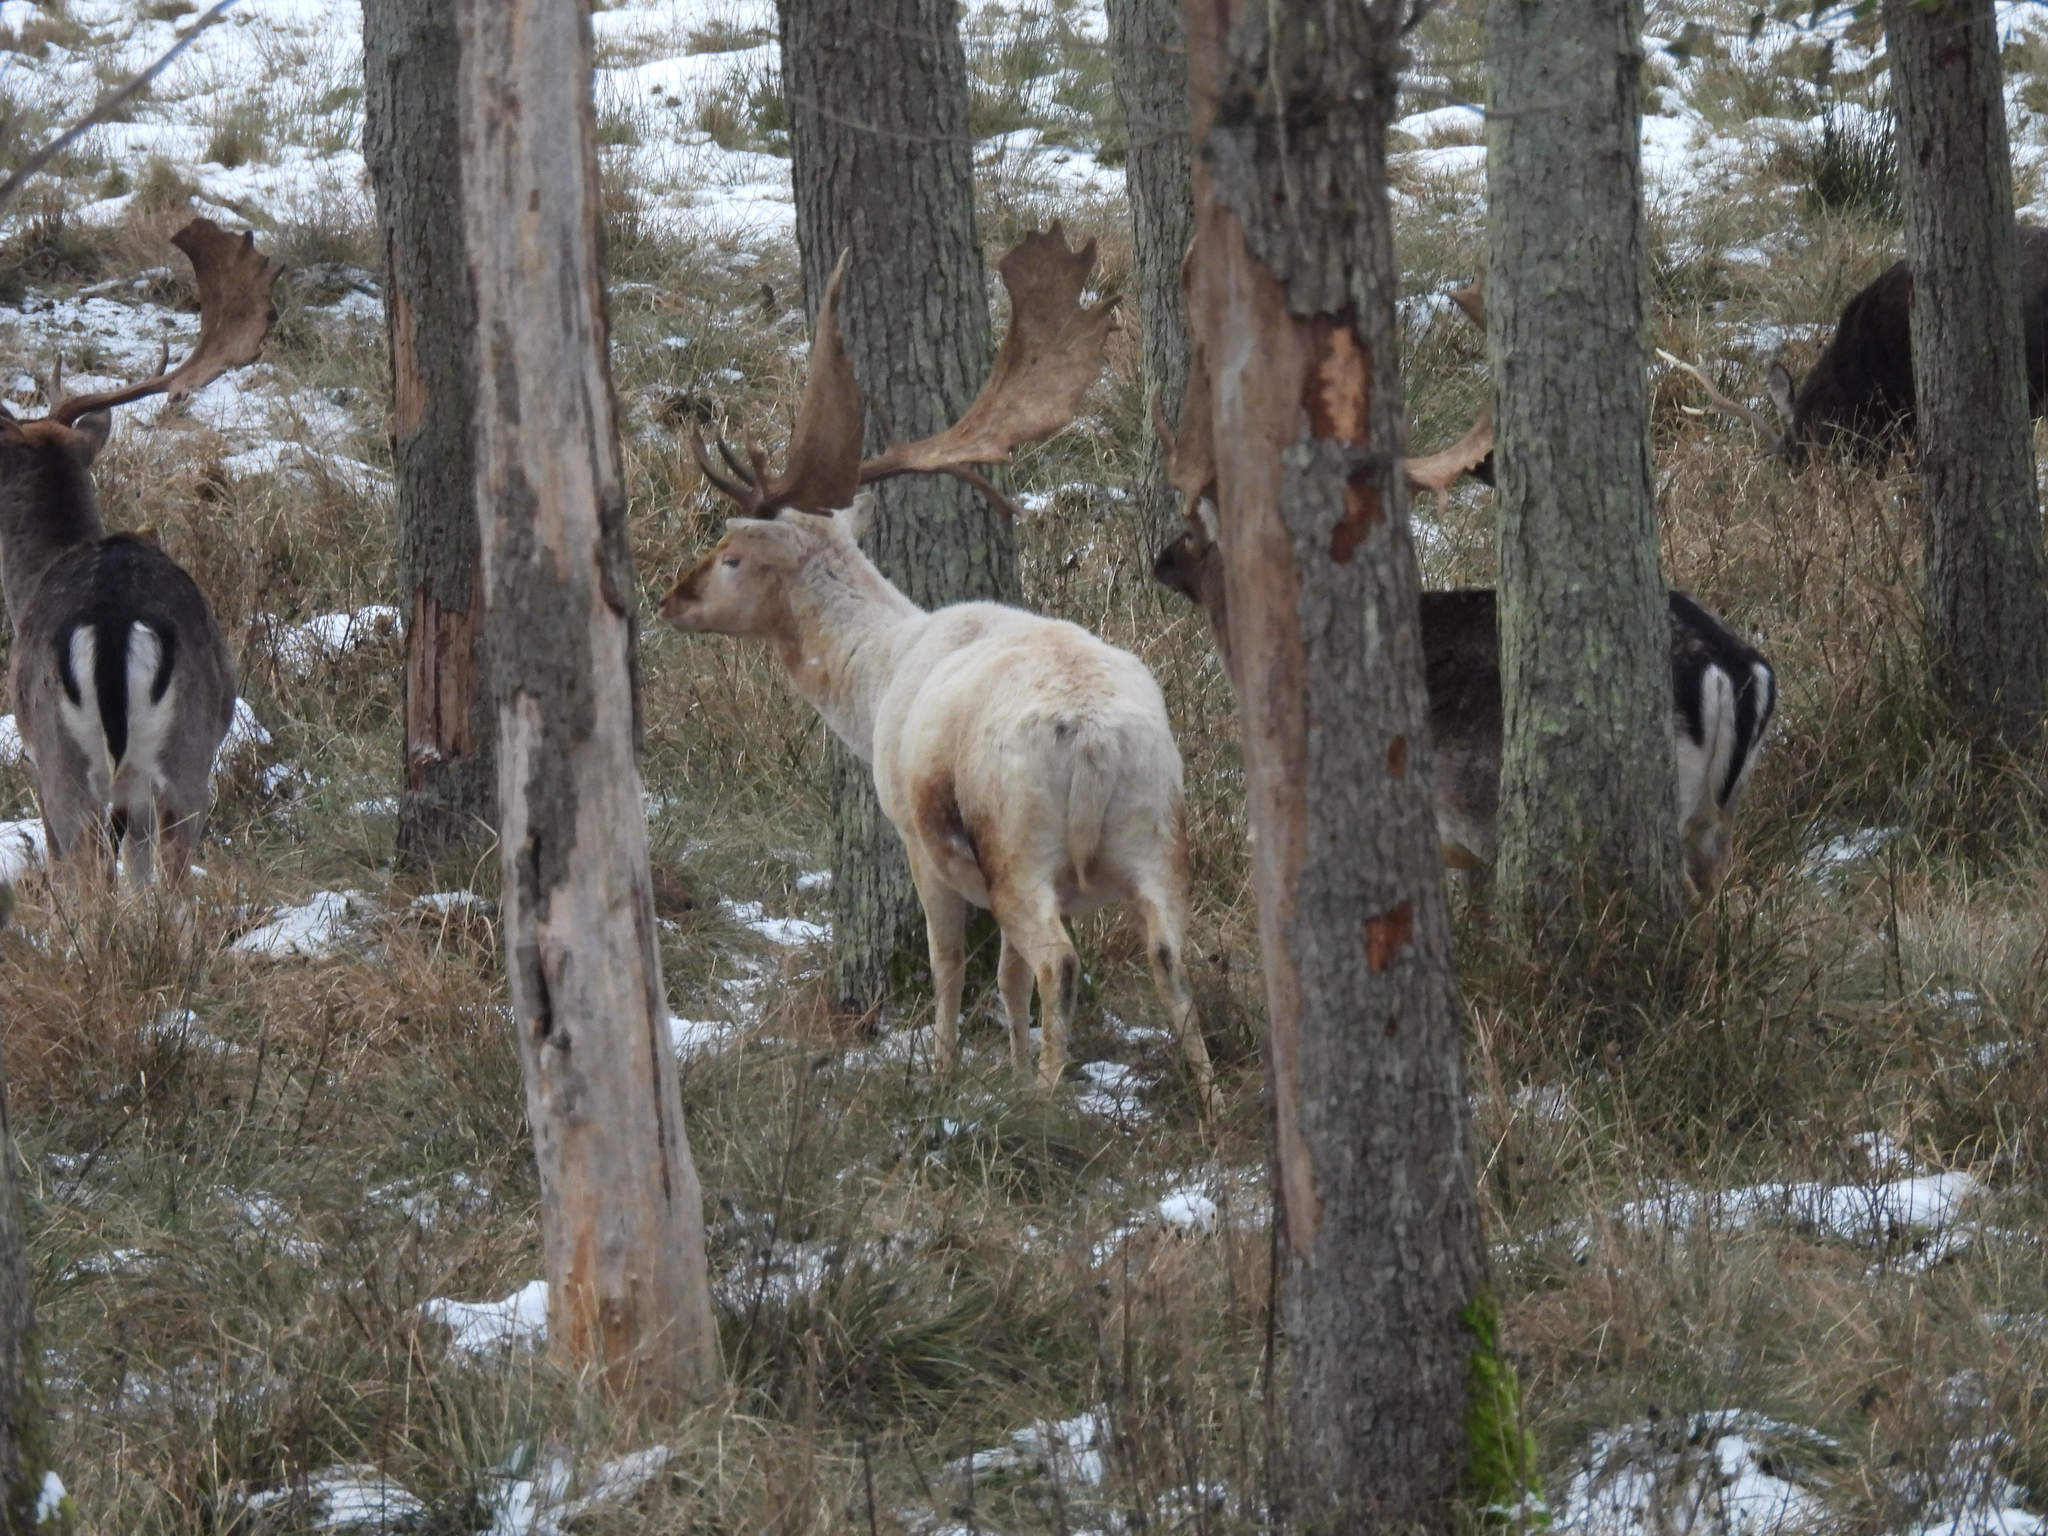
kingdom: Animalia
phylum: Chordata
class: Mammalia
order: Artiodactyla
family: Cervidae
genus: Dama
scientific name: Dama dama
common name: Fallow deer
